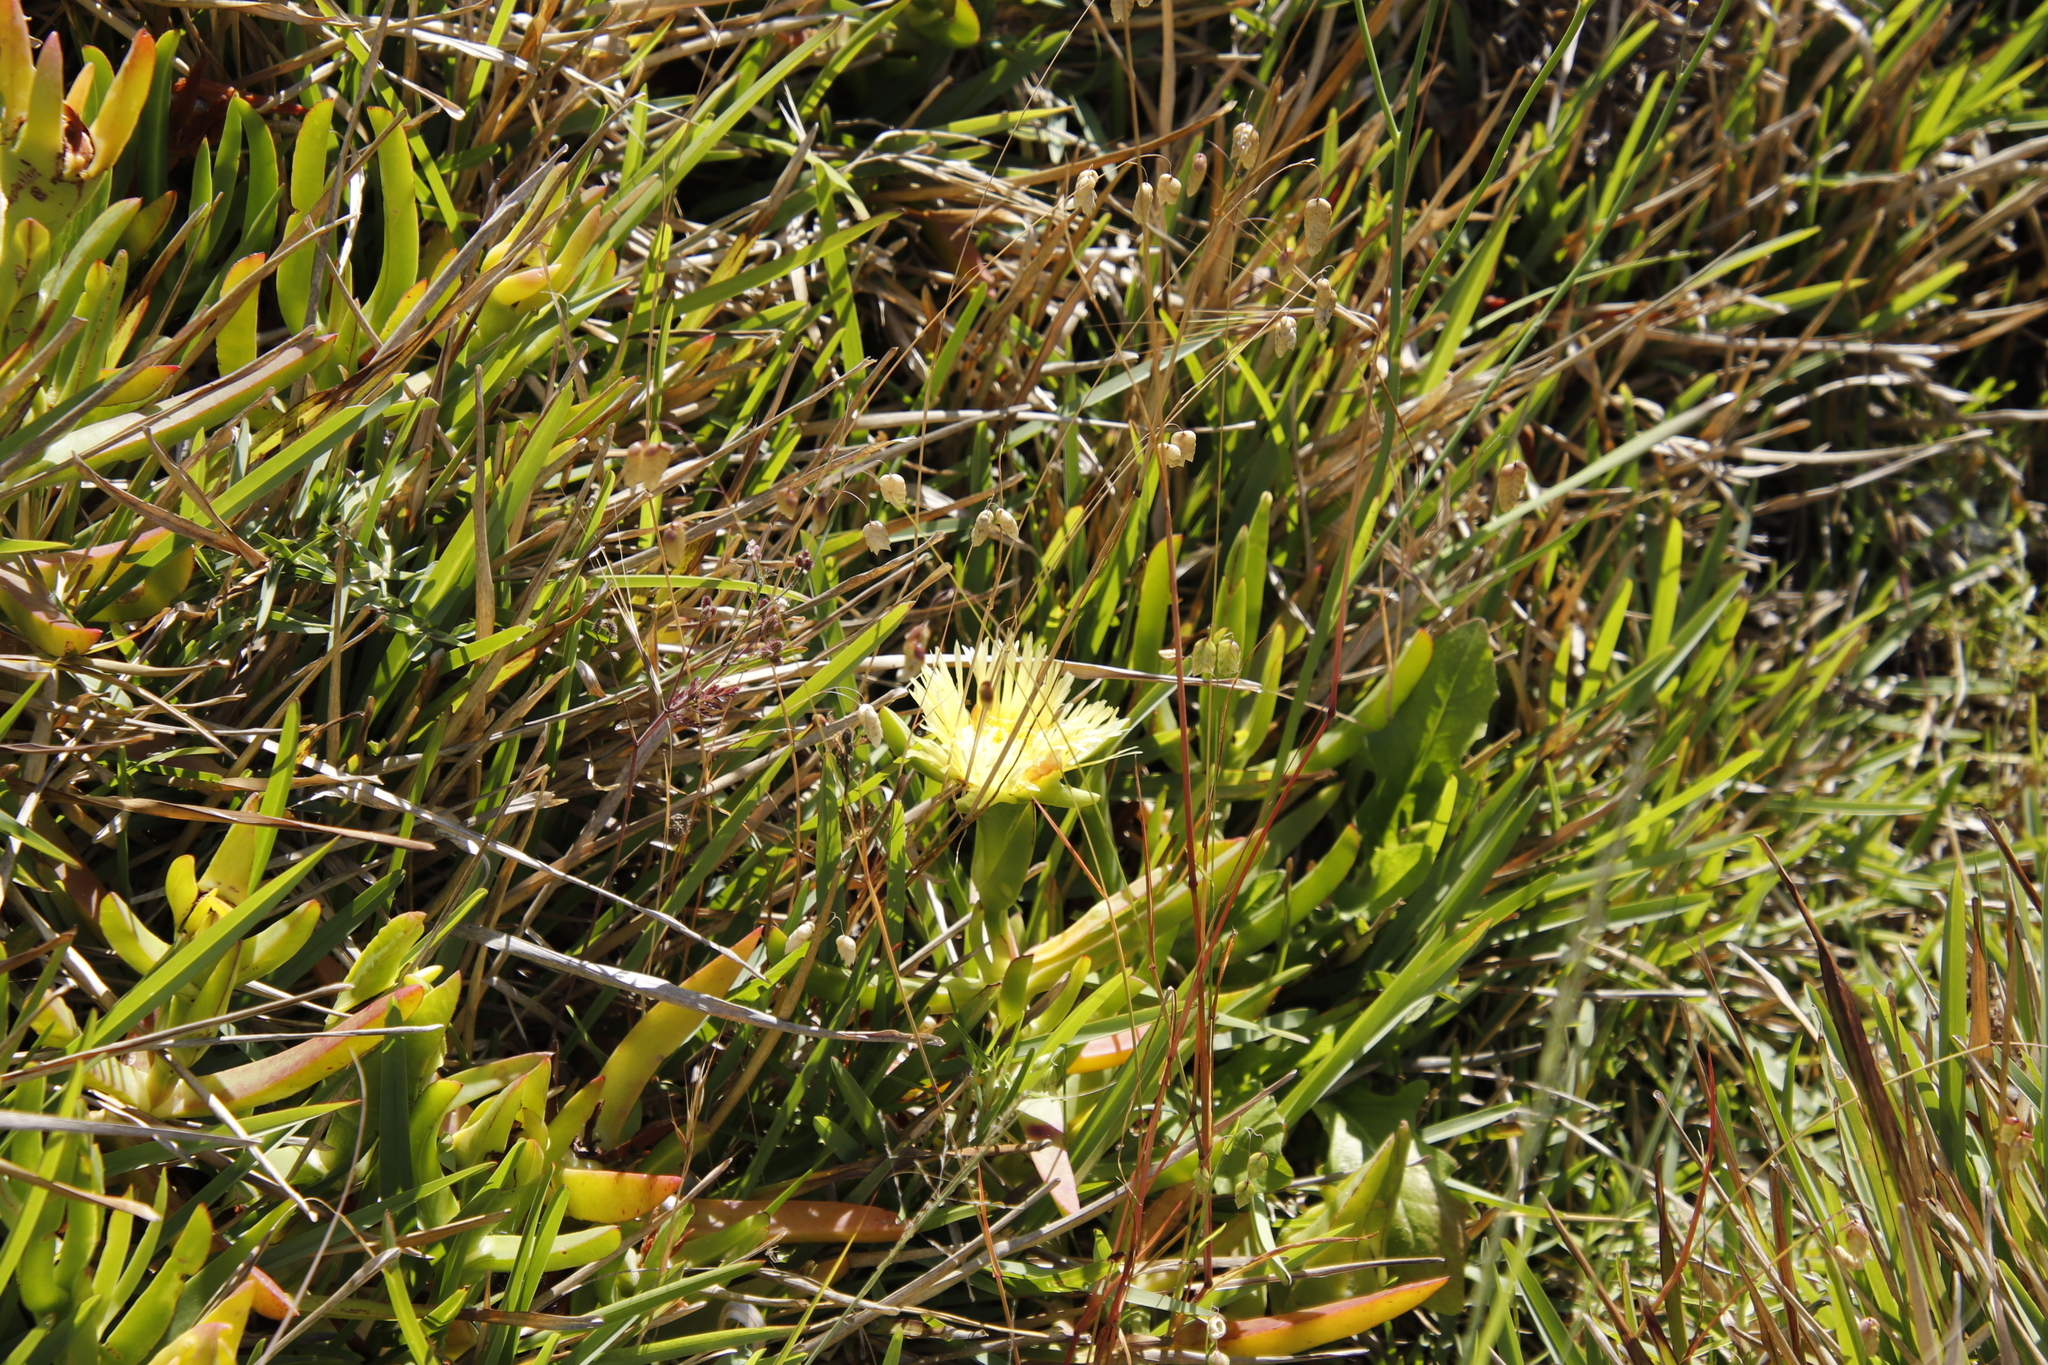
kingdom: Plantae
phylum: Tracheophyta
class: Magnoliopsida
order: Caryophyllales
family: Aizoaceae
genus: Carpobrotus
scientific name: Carpobrotus edulis
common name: Hottentot-fig
